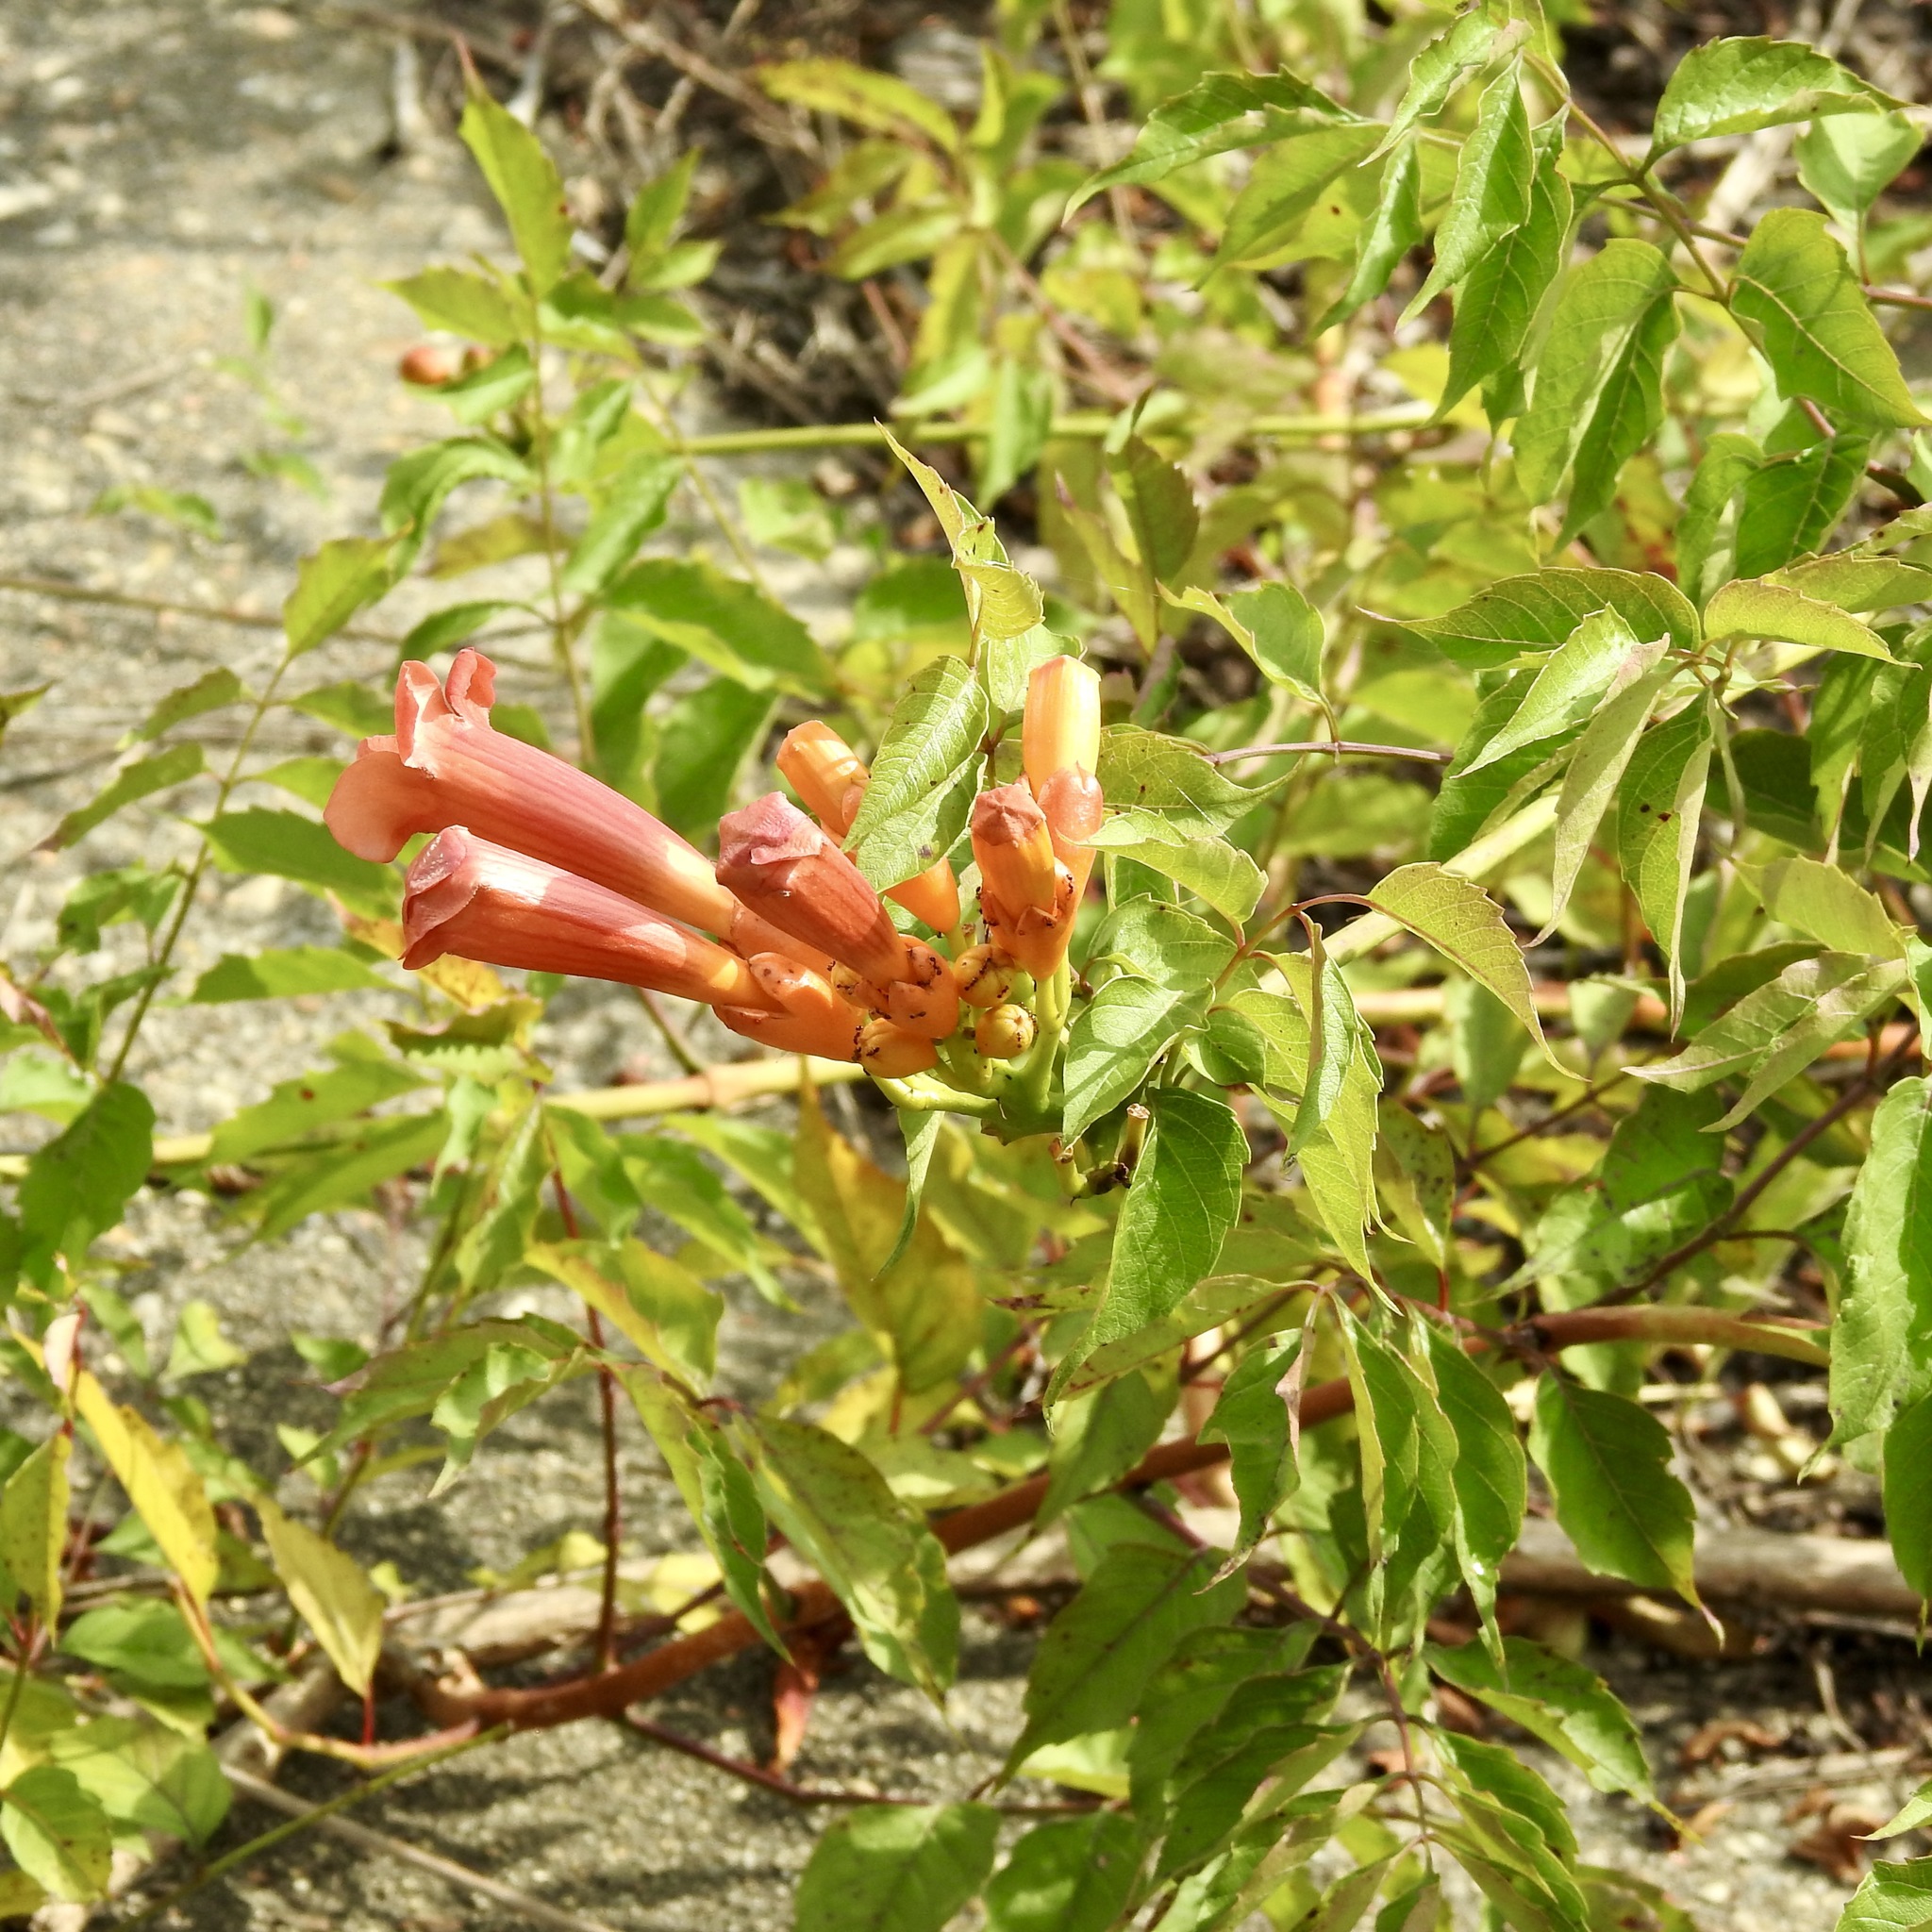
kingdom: Plantae
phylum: Tracheophyta
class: Magnoliopsida
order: Lamiales
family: Bignoniaceae
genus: Campsis
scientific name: Campsis radicans
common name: Trumpet-creeper
